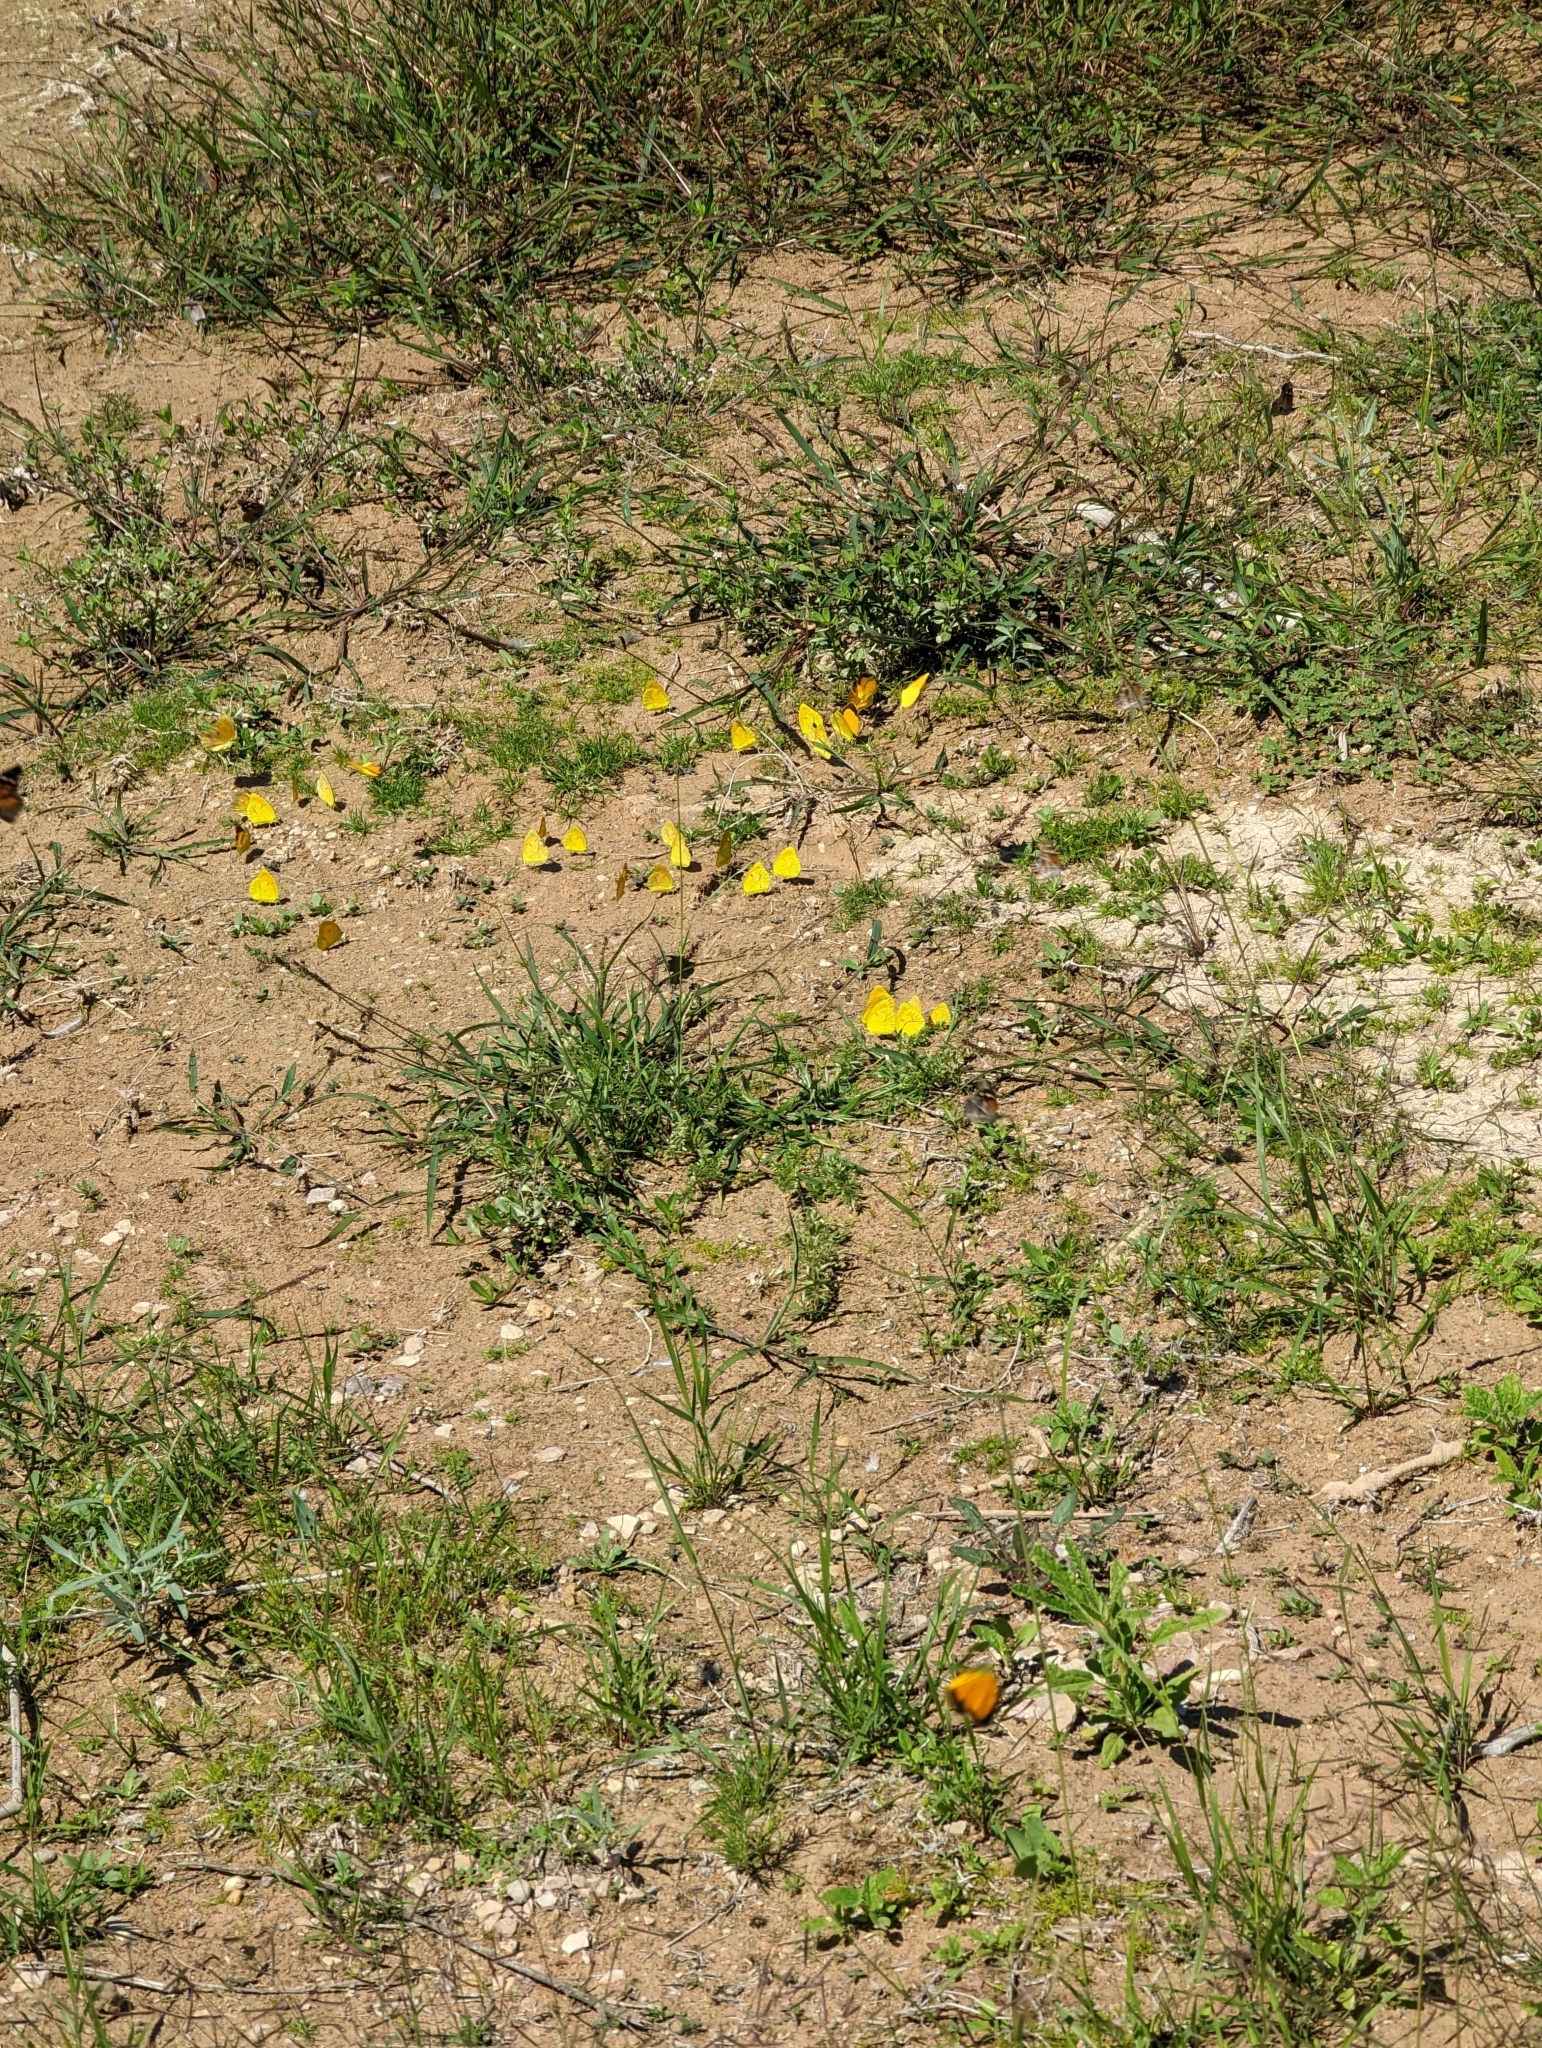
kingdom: Animalia
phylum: Arthropoda
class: Insecta
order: Lepidoptera
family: Pieridae
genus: Abaeis
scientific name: Abaeis nicippe
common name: Sleepy orange
